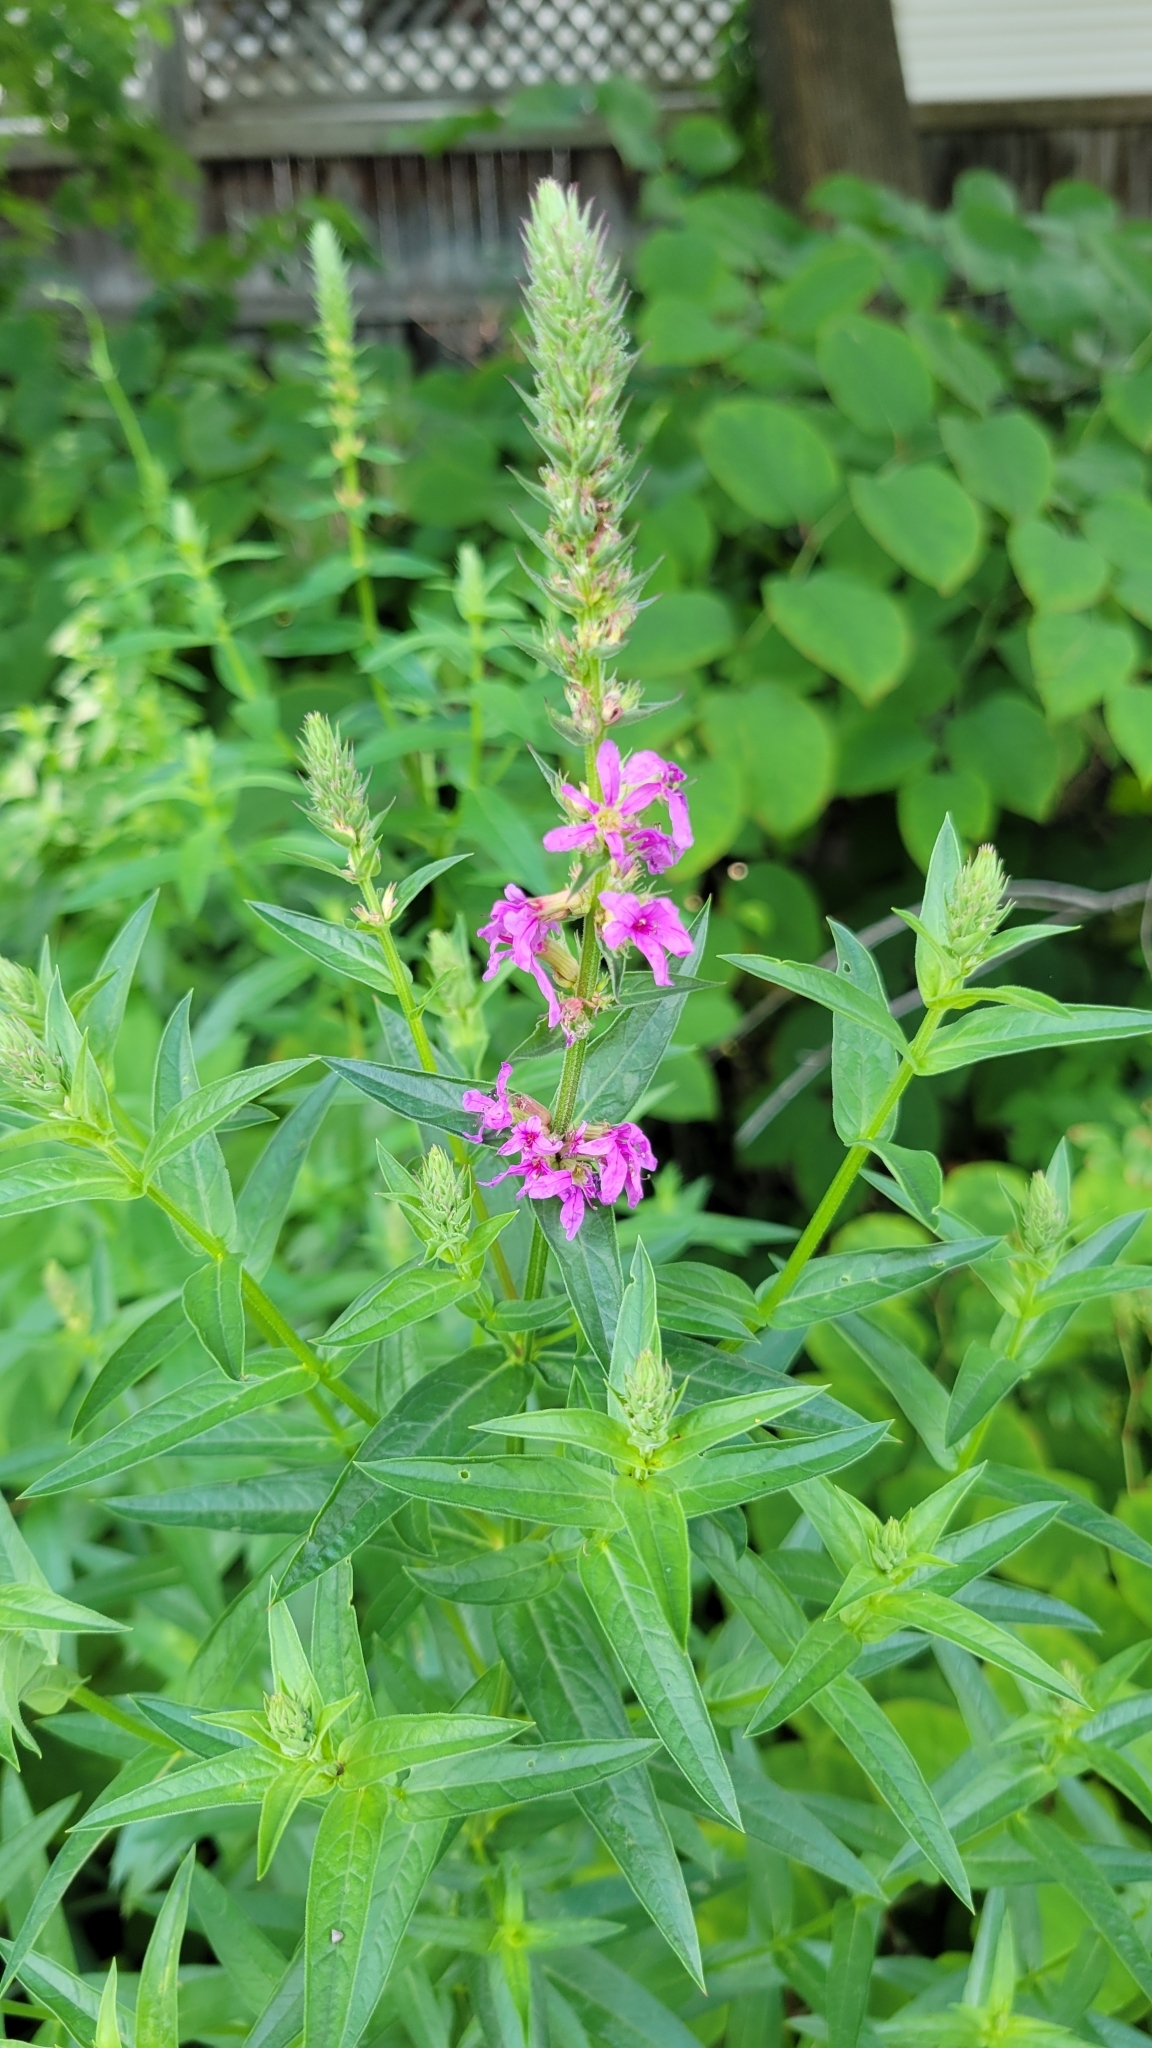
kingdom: Plantae
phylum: Tracheophyta
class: Magnoliopsida
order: Myrtales
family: Lythraceae
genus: Lythrum
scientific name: Lythrum salicaria
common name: Purple loosestrife
